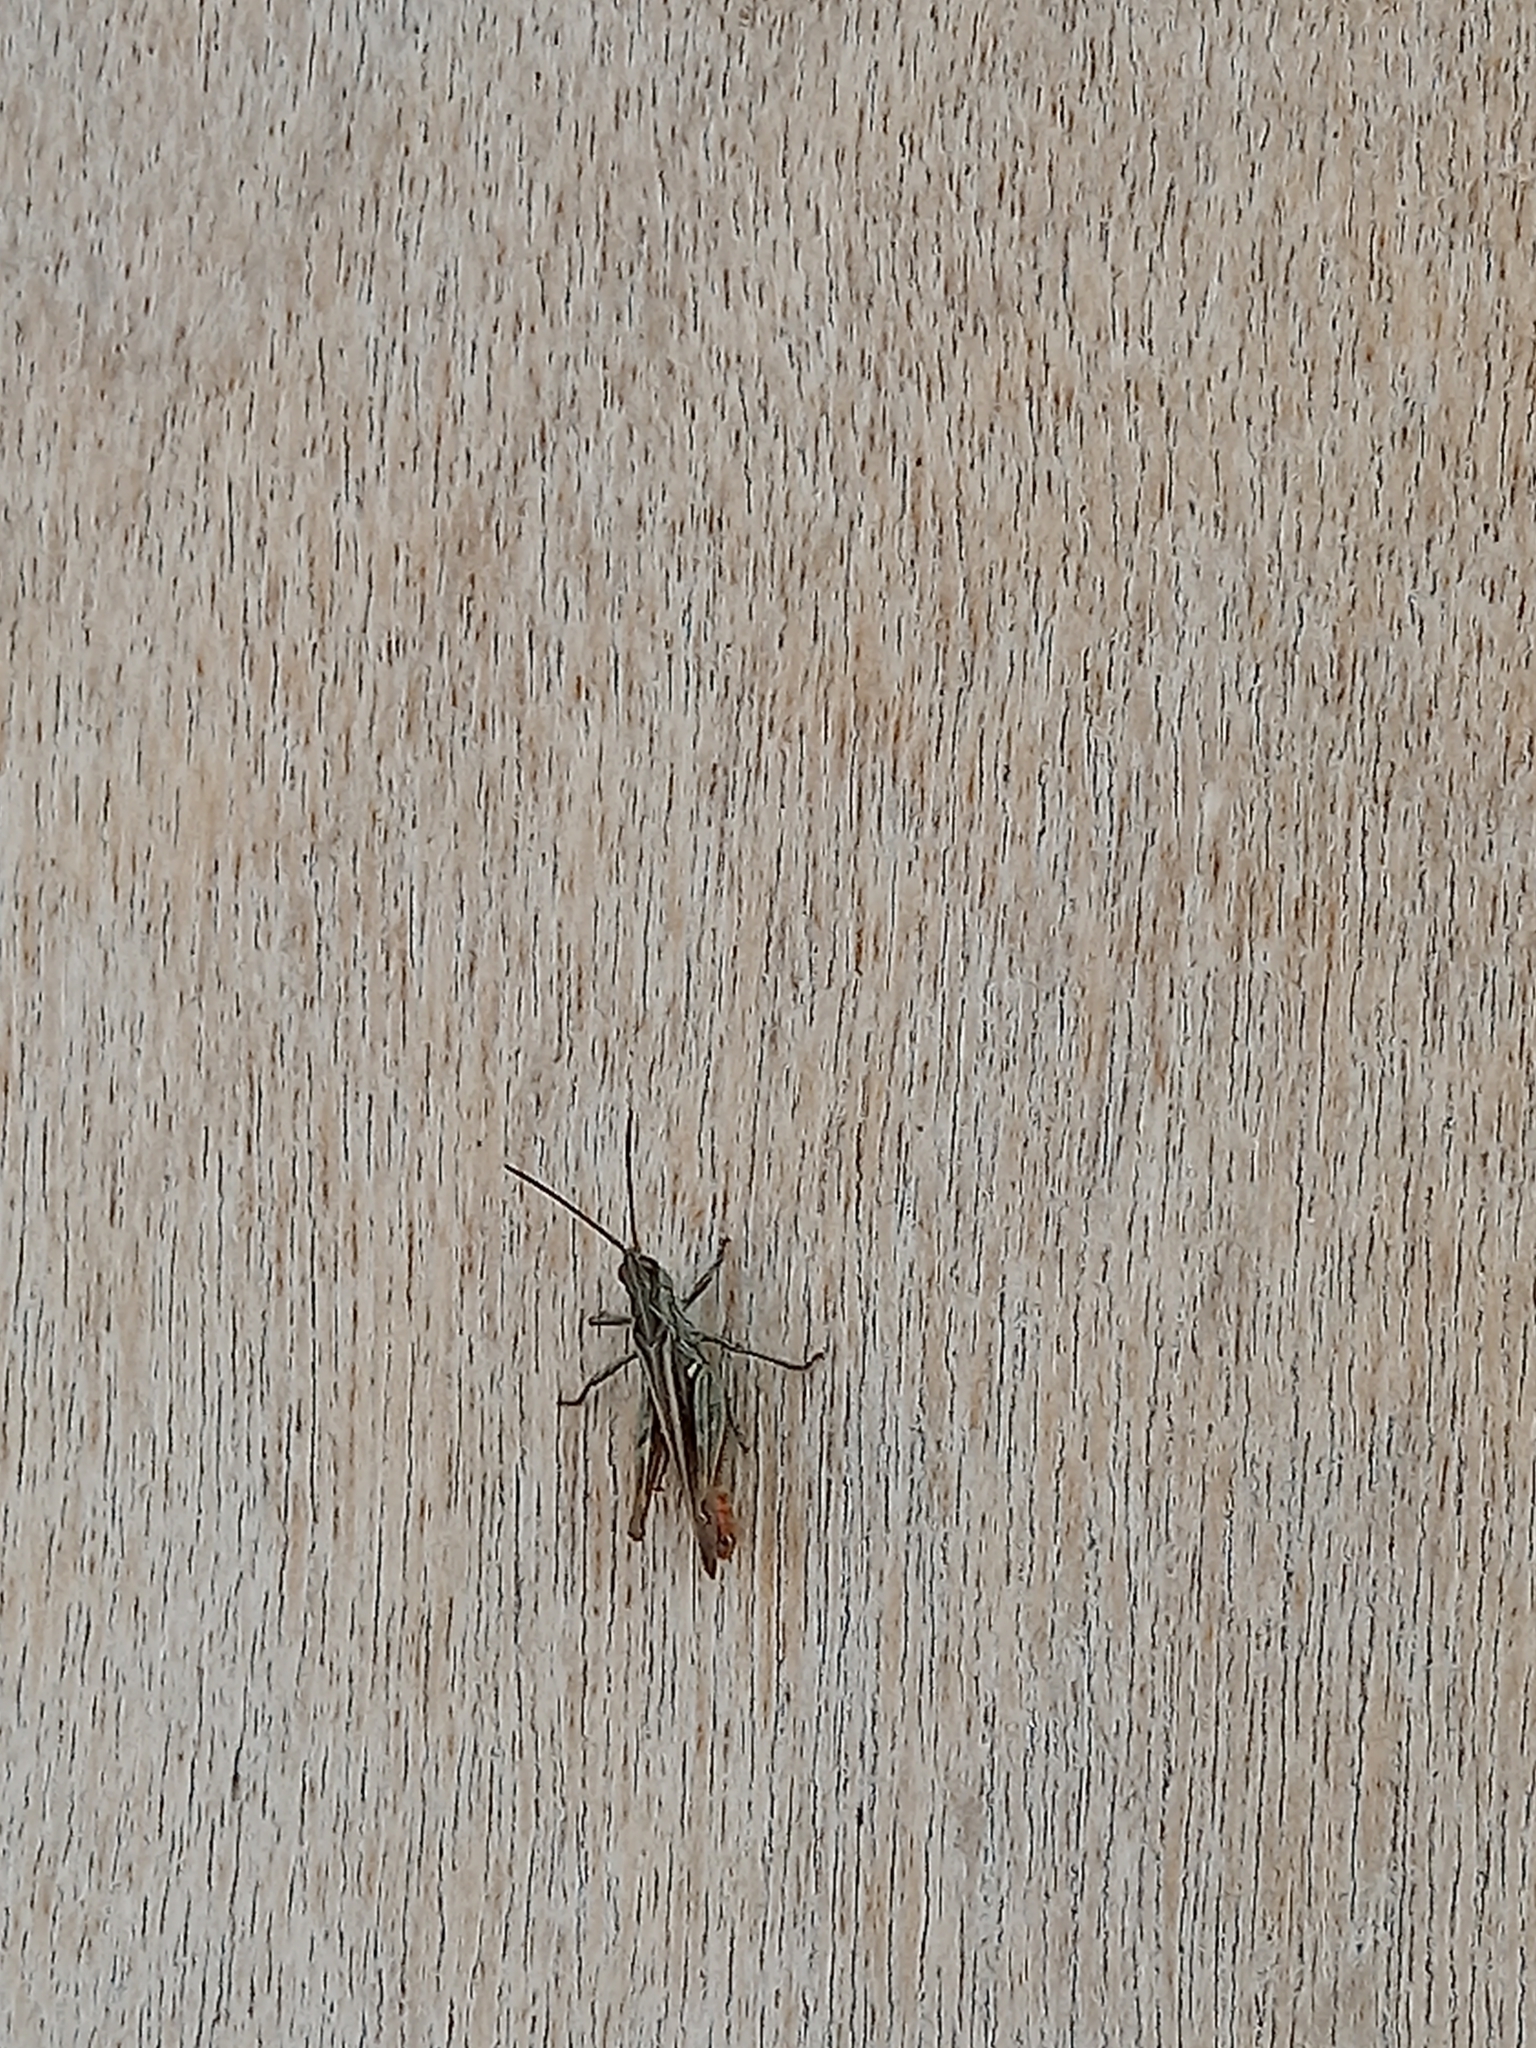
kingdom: Animalia
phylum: Arthropoda
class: Insecta
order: Orthoptera
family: Acrididae
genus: Chorthippus
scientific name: Chorthippus brunneus
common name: Field grasshopper
